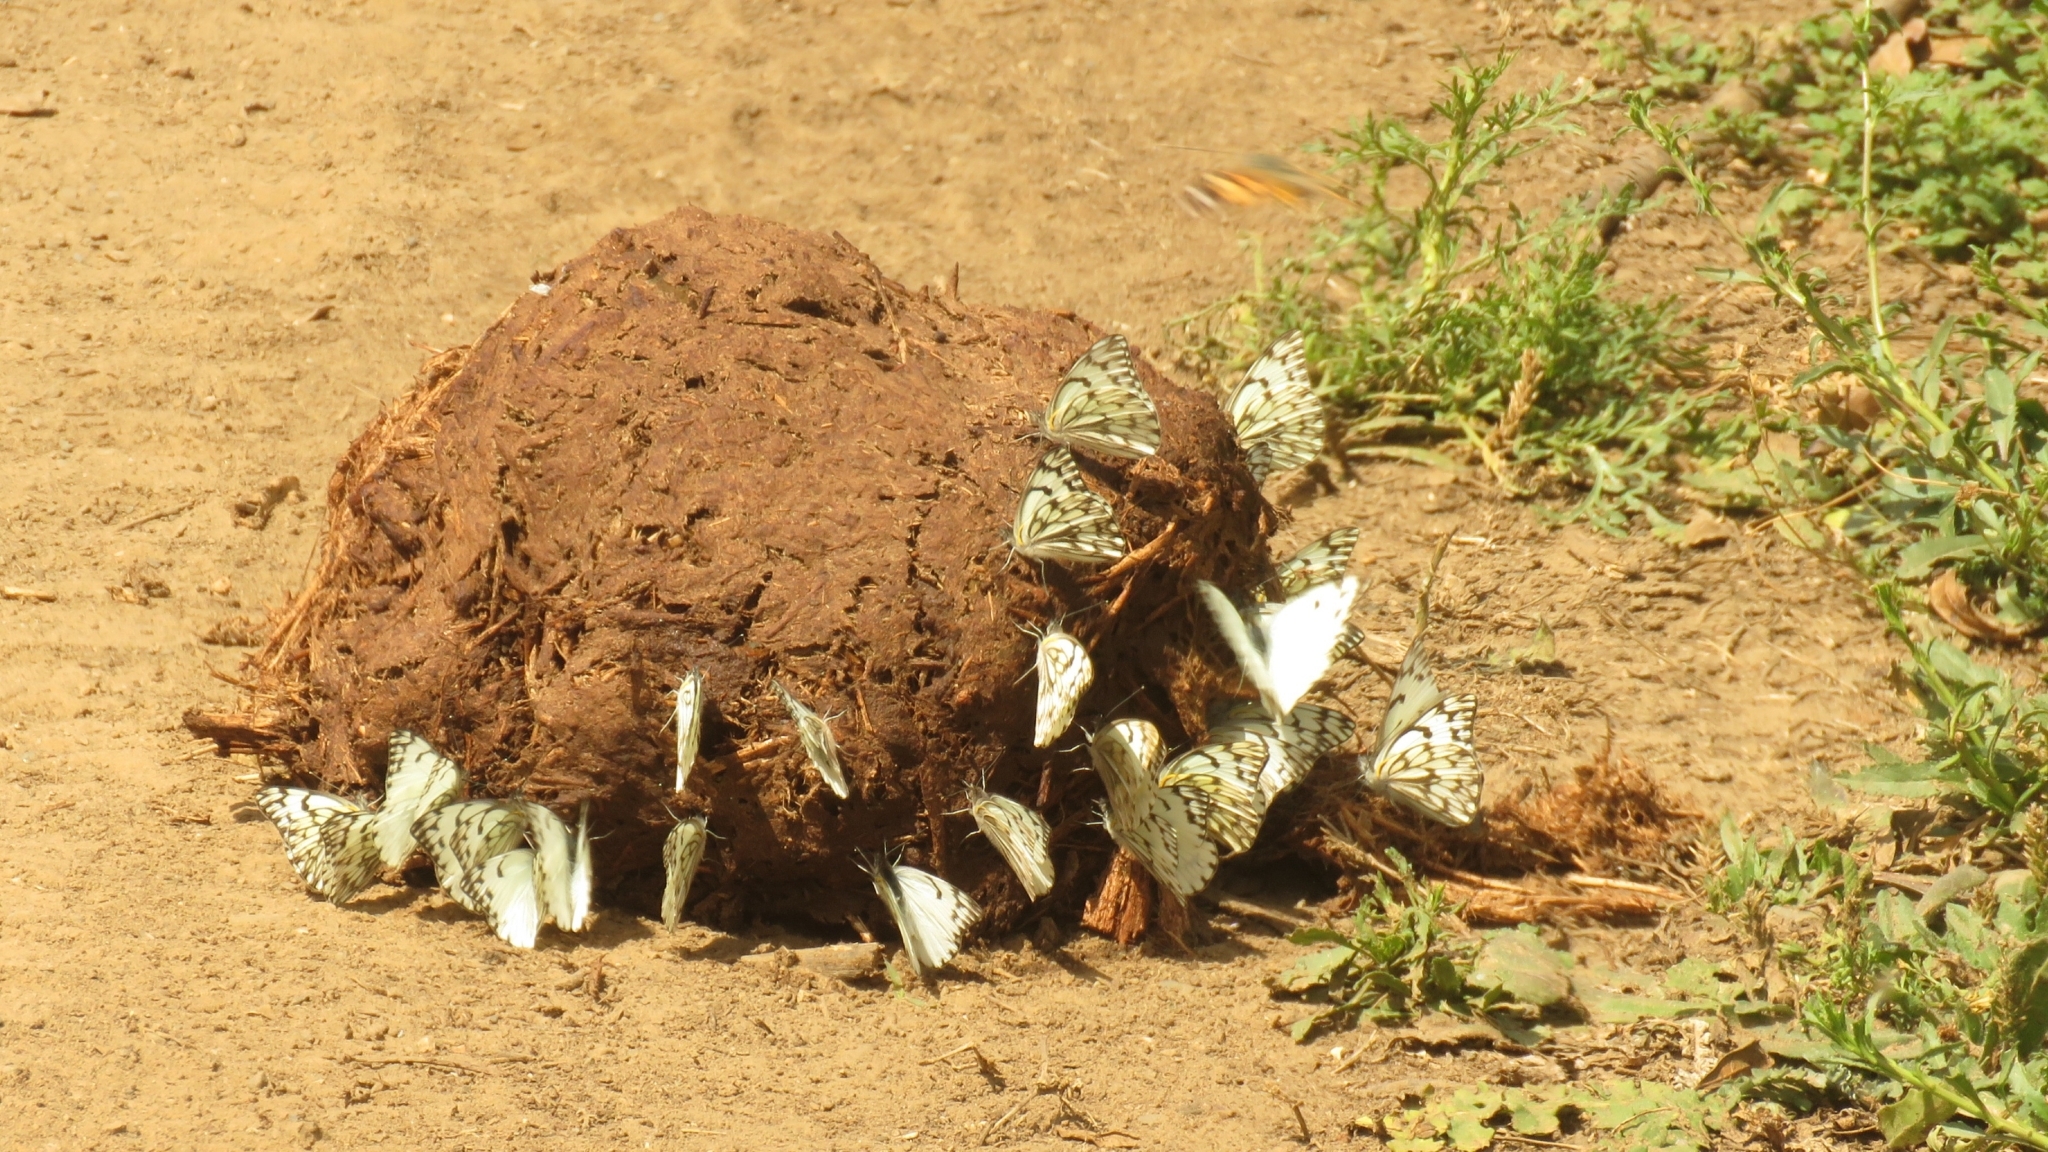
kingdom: Animalia
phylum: Arthropoda
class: Insecta
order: Lepidoptera
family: Pieridae
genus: Belenois
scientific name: Belenois gidica
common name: Pointed caper white
